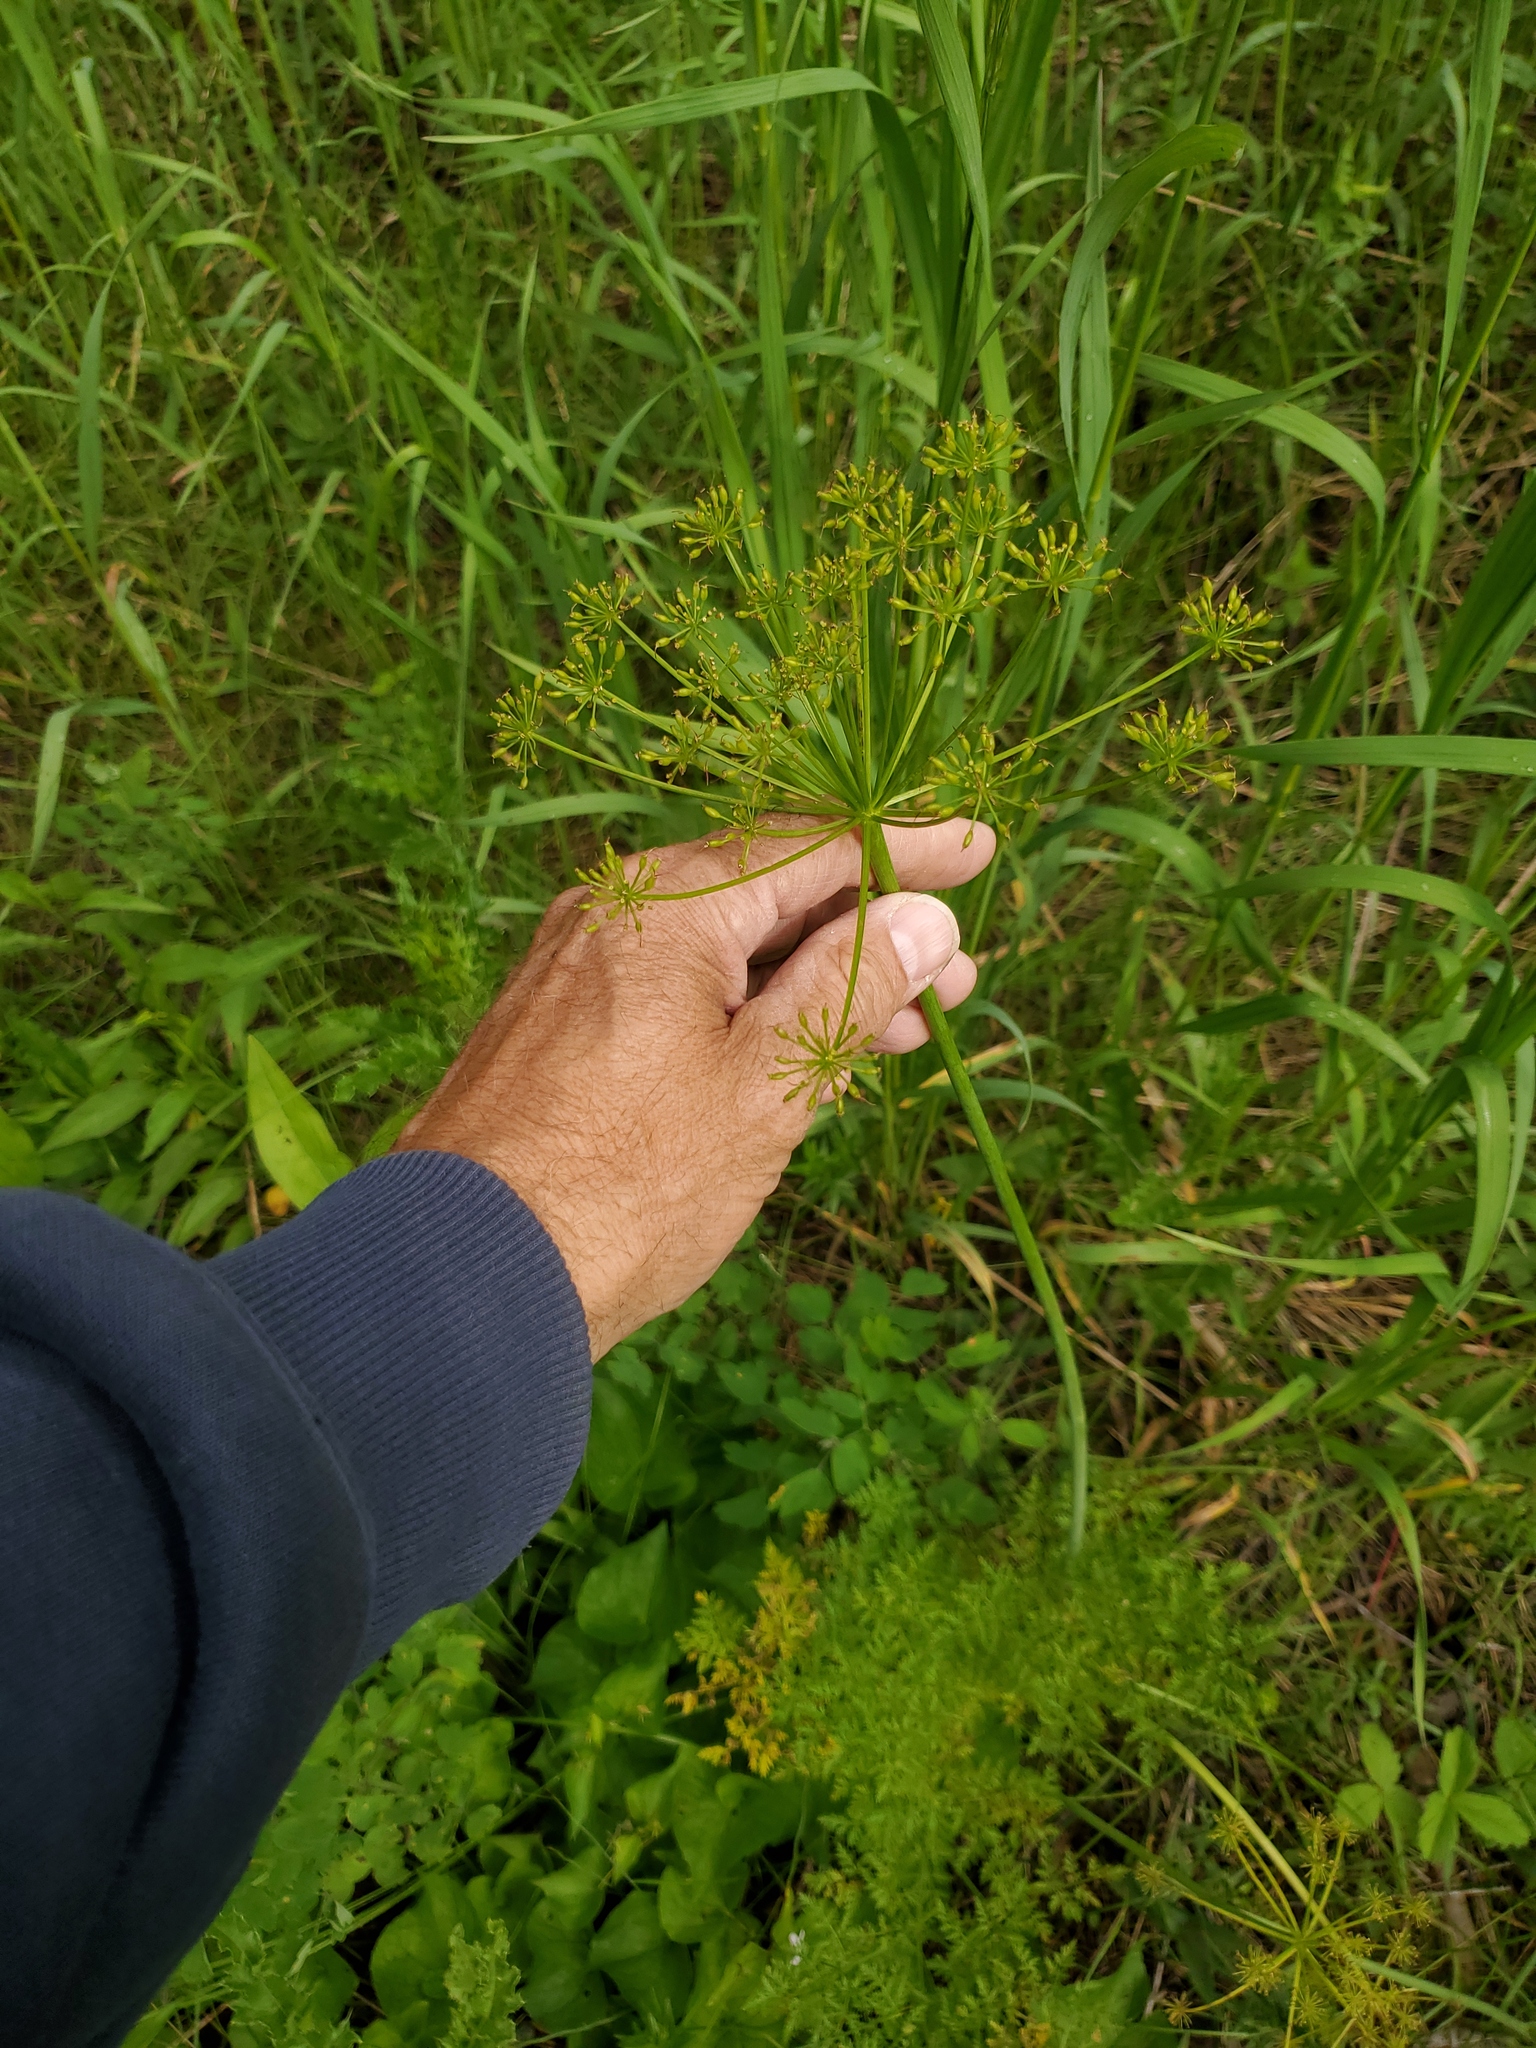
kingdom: Plantae
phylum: Tracheophyta
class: Magnoliopsida
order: Apiales
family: Apiaceae
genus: Lomatium
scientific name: Lomatium multifidum
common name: Carrot-leaved biscuitroot
